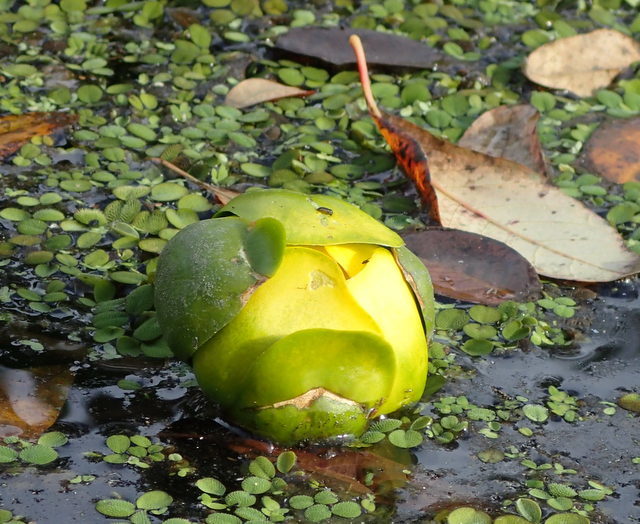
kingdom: Plantae
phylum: Tracheophyta
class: Magnoliopsida
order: Nymphaeales
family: Nymphaeaceae
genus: Nuphar
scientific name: Nuphar advena
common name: Spatter-dock
